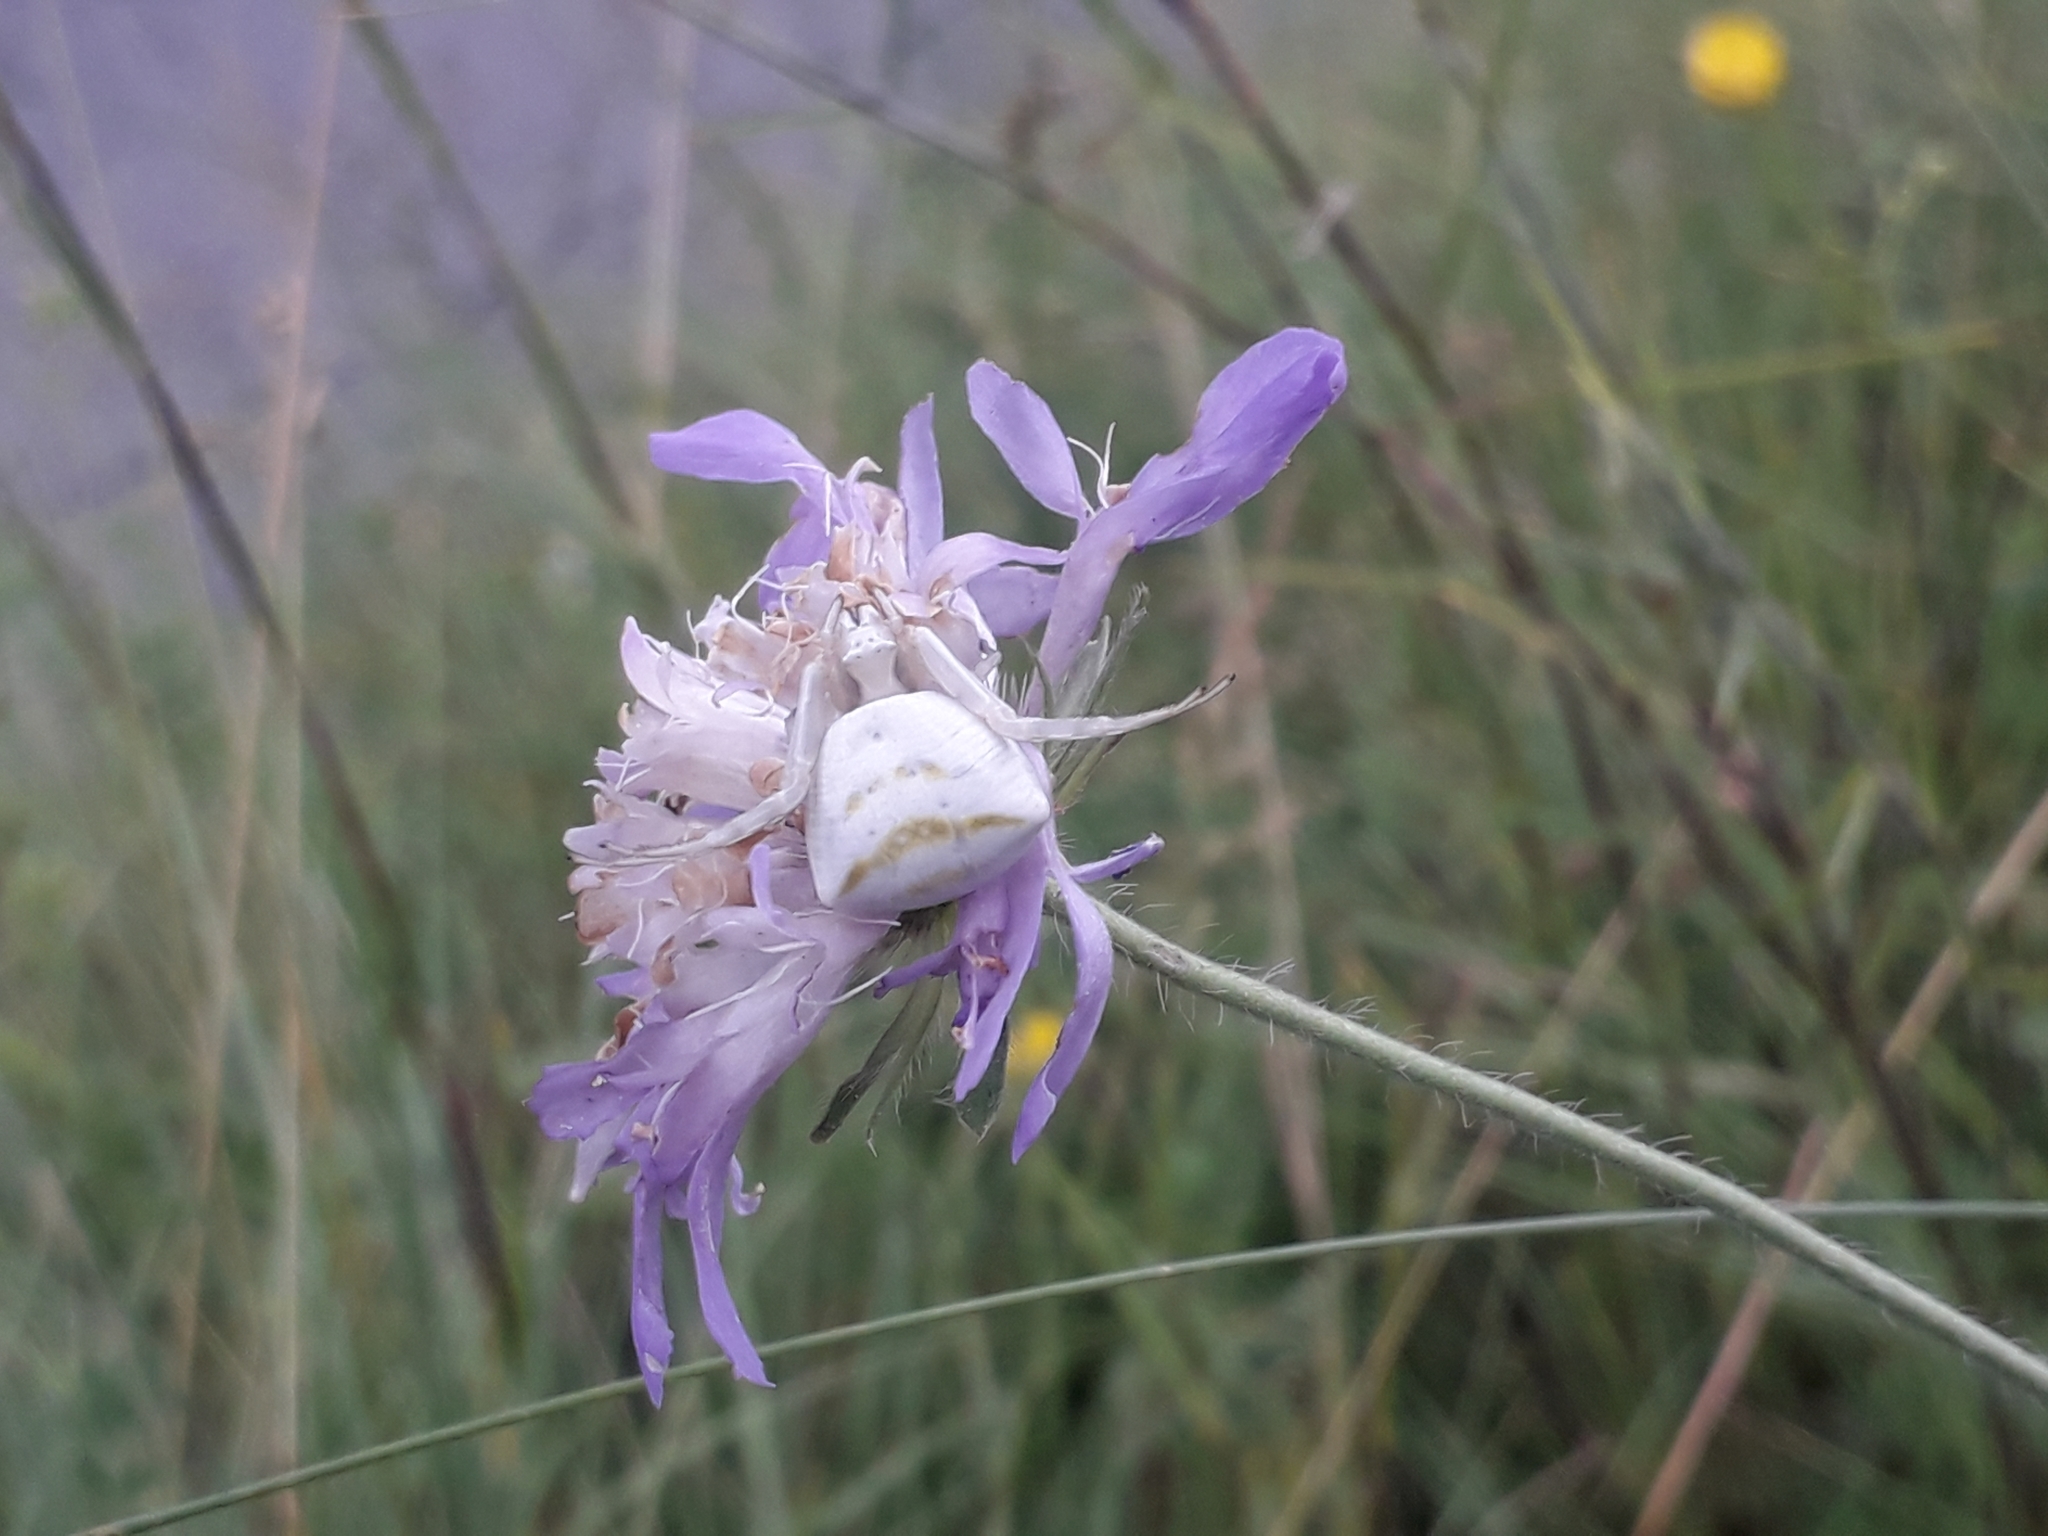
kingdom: Animalia
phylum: Arthropoda
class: Arachnida
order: Araneae
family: Thomisidae
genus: Thomisus
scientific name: Thomisus onustus
